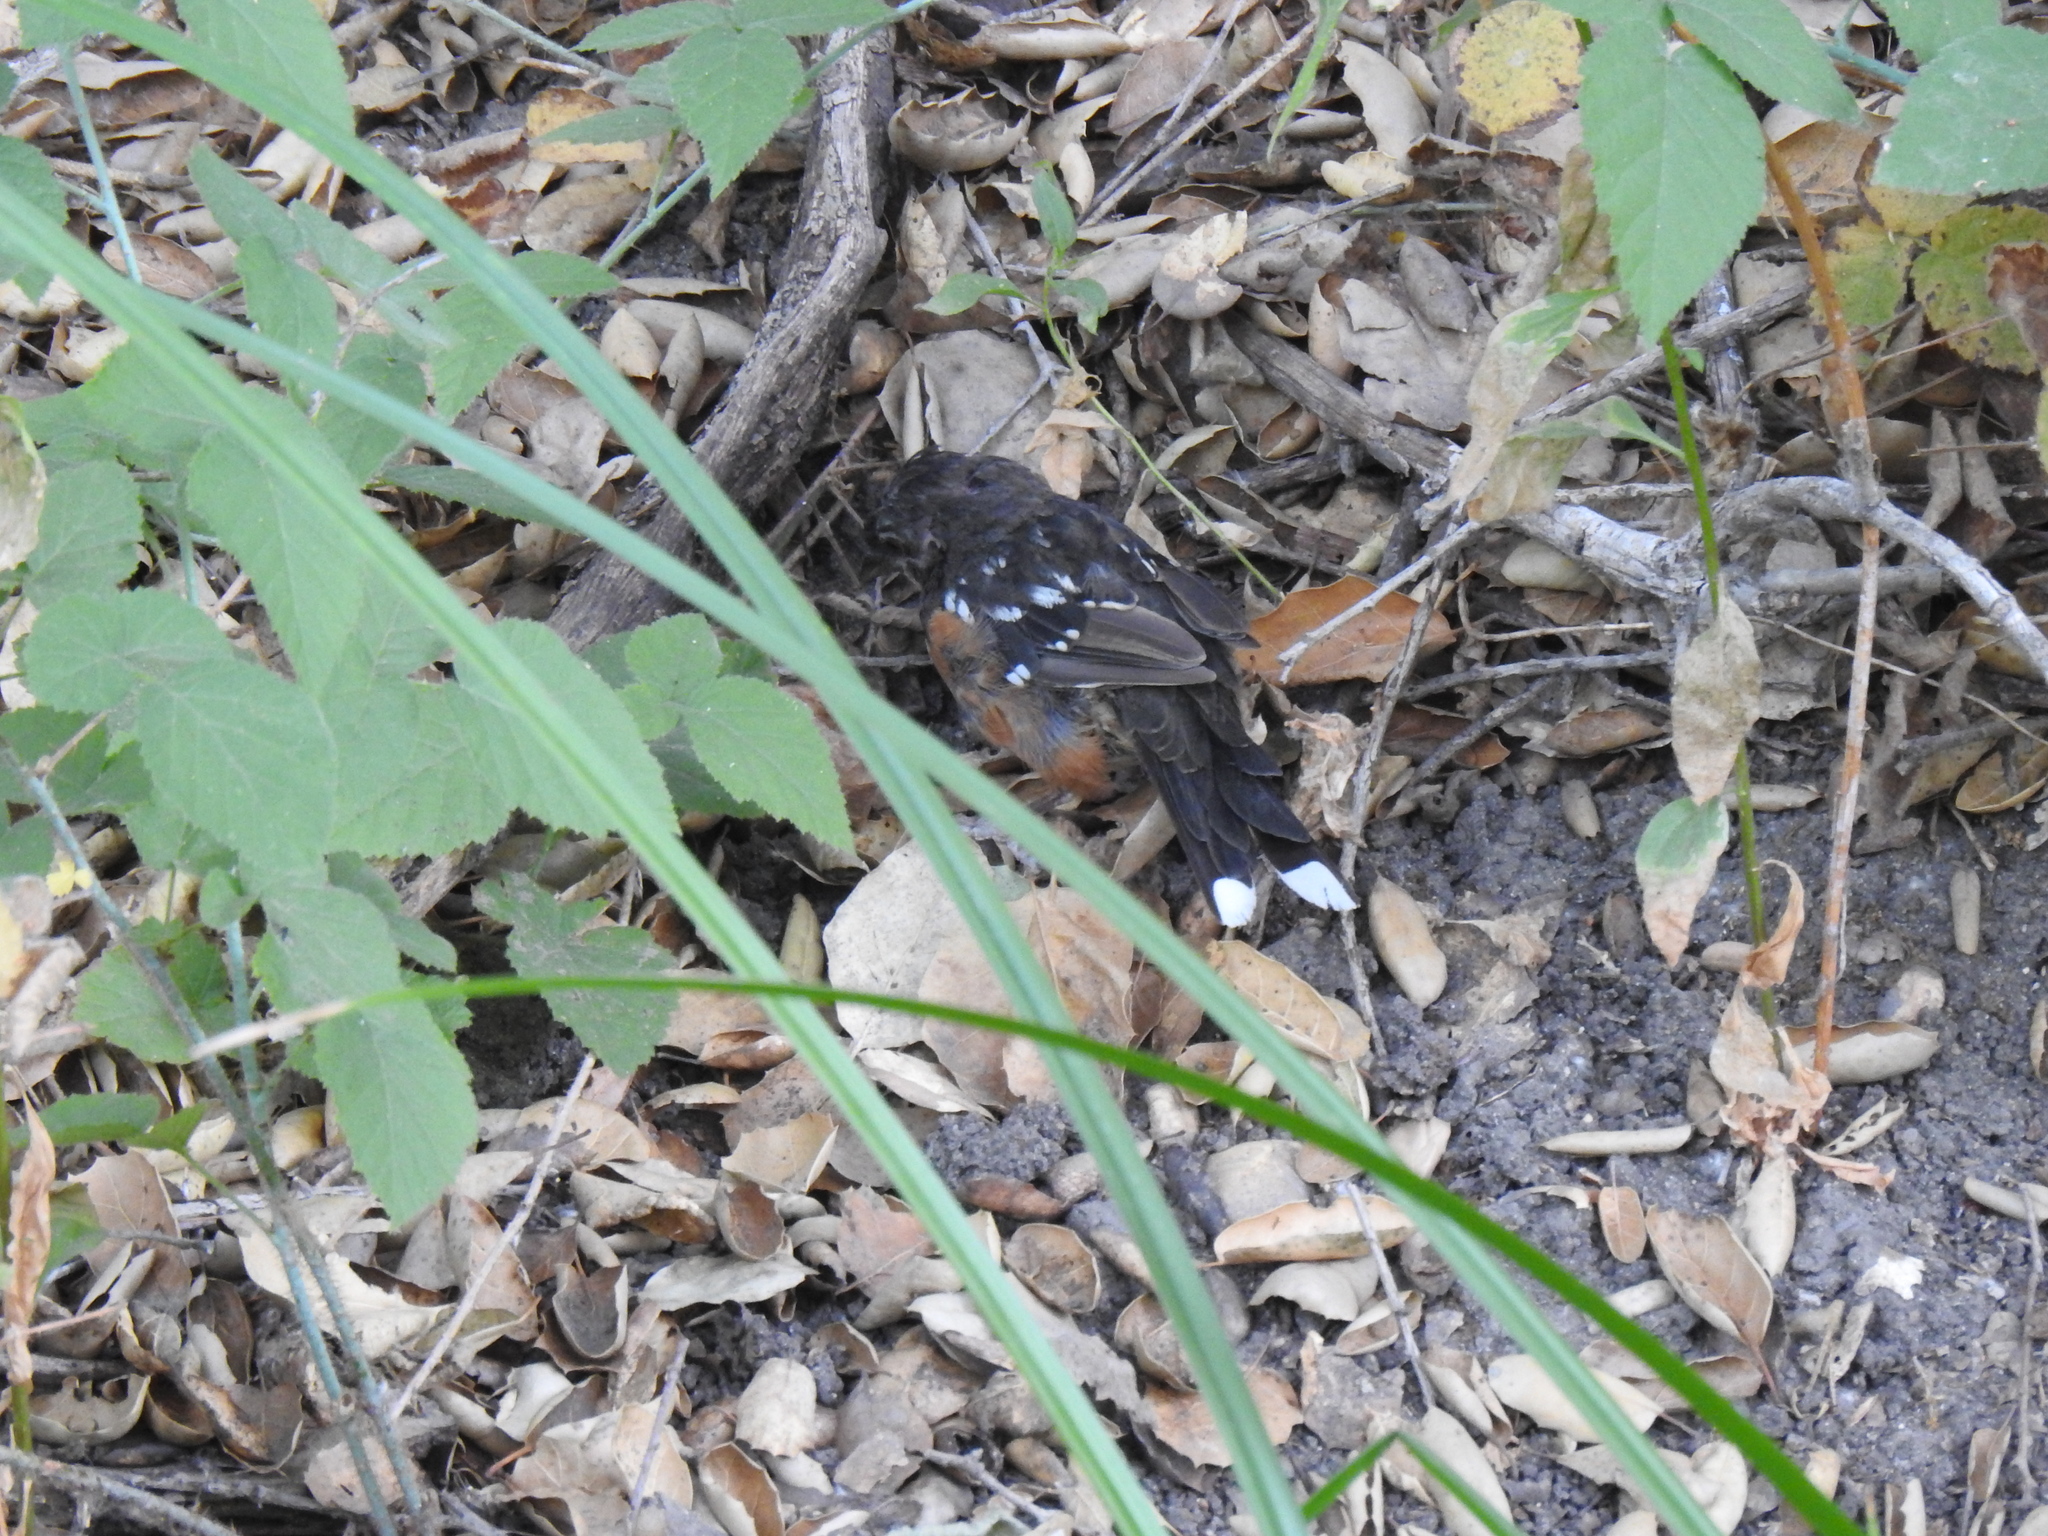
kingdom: Animalia
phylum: Chordata
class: Aves
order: Passeriformes
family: Passerellidae
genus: Pipilo
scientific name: Pipilo maculatus
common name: Spotted towhee
